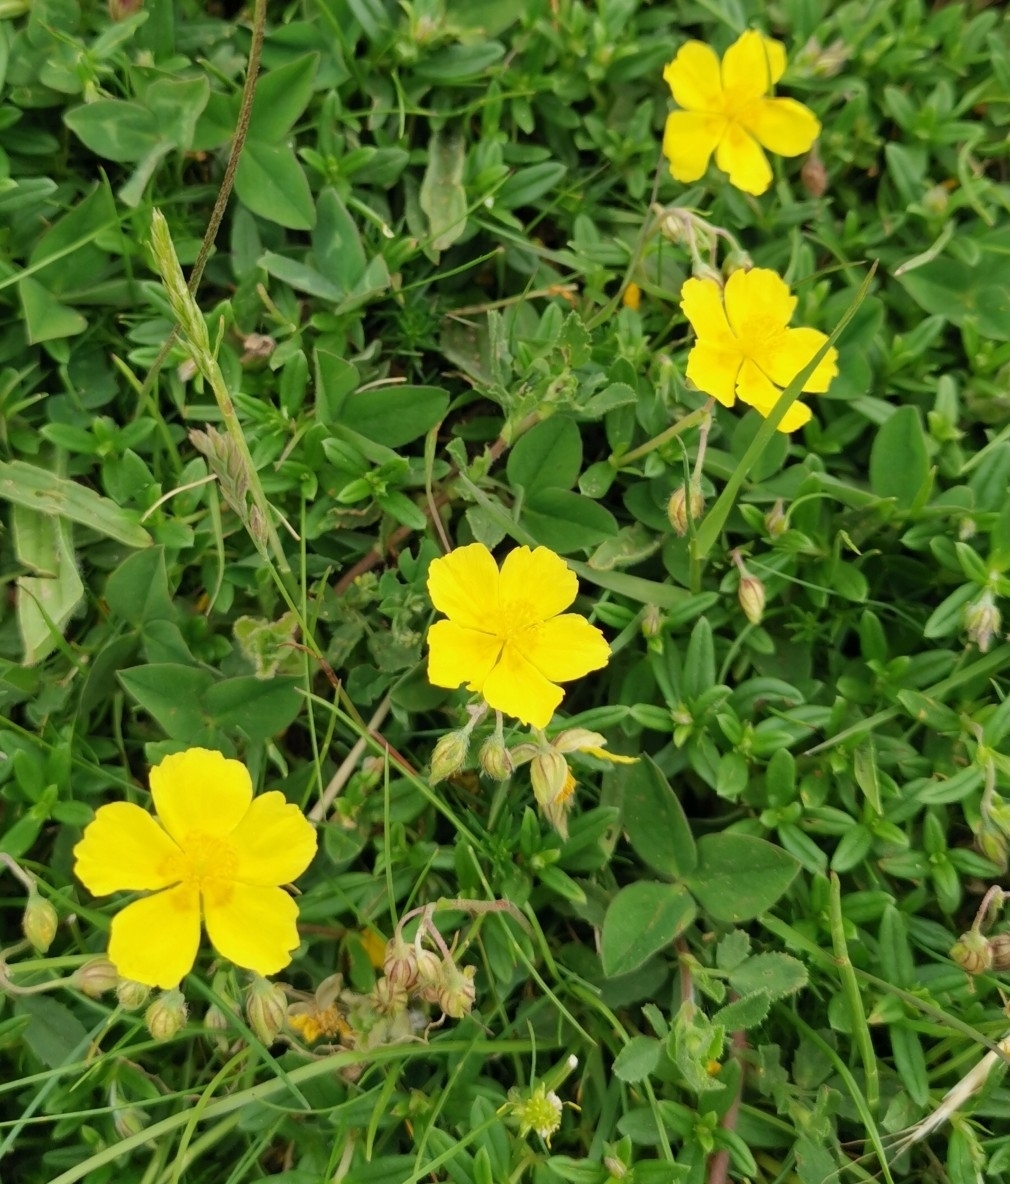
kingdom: Plantae
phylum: Tracheophyta
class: Magnoliopsida
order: Malvales
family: Cistaceae
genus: Helianthemum
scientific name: Helianthemum nummularium
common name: Common rock-rose
